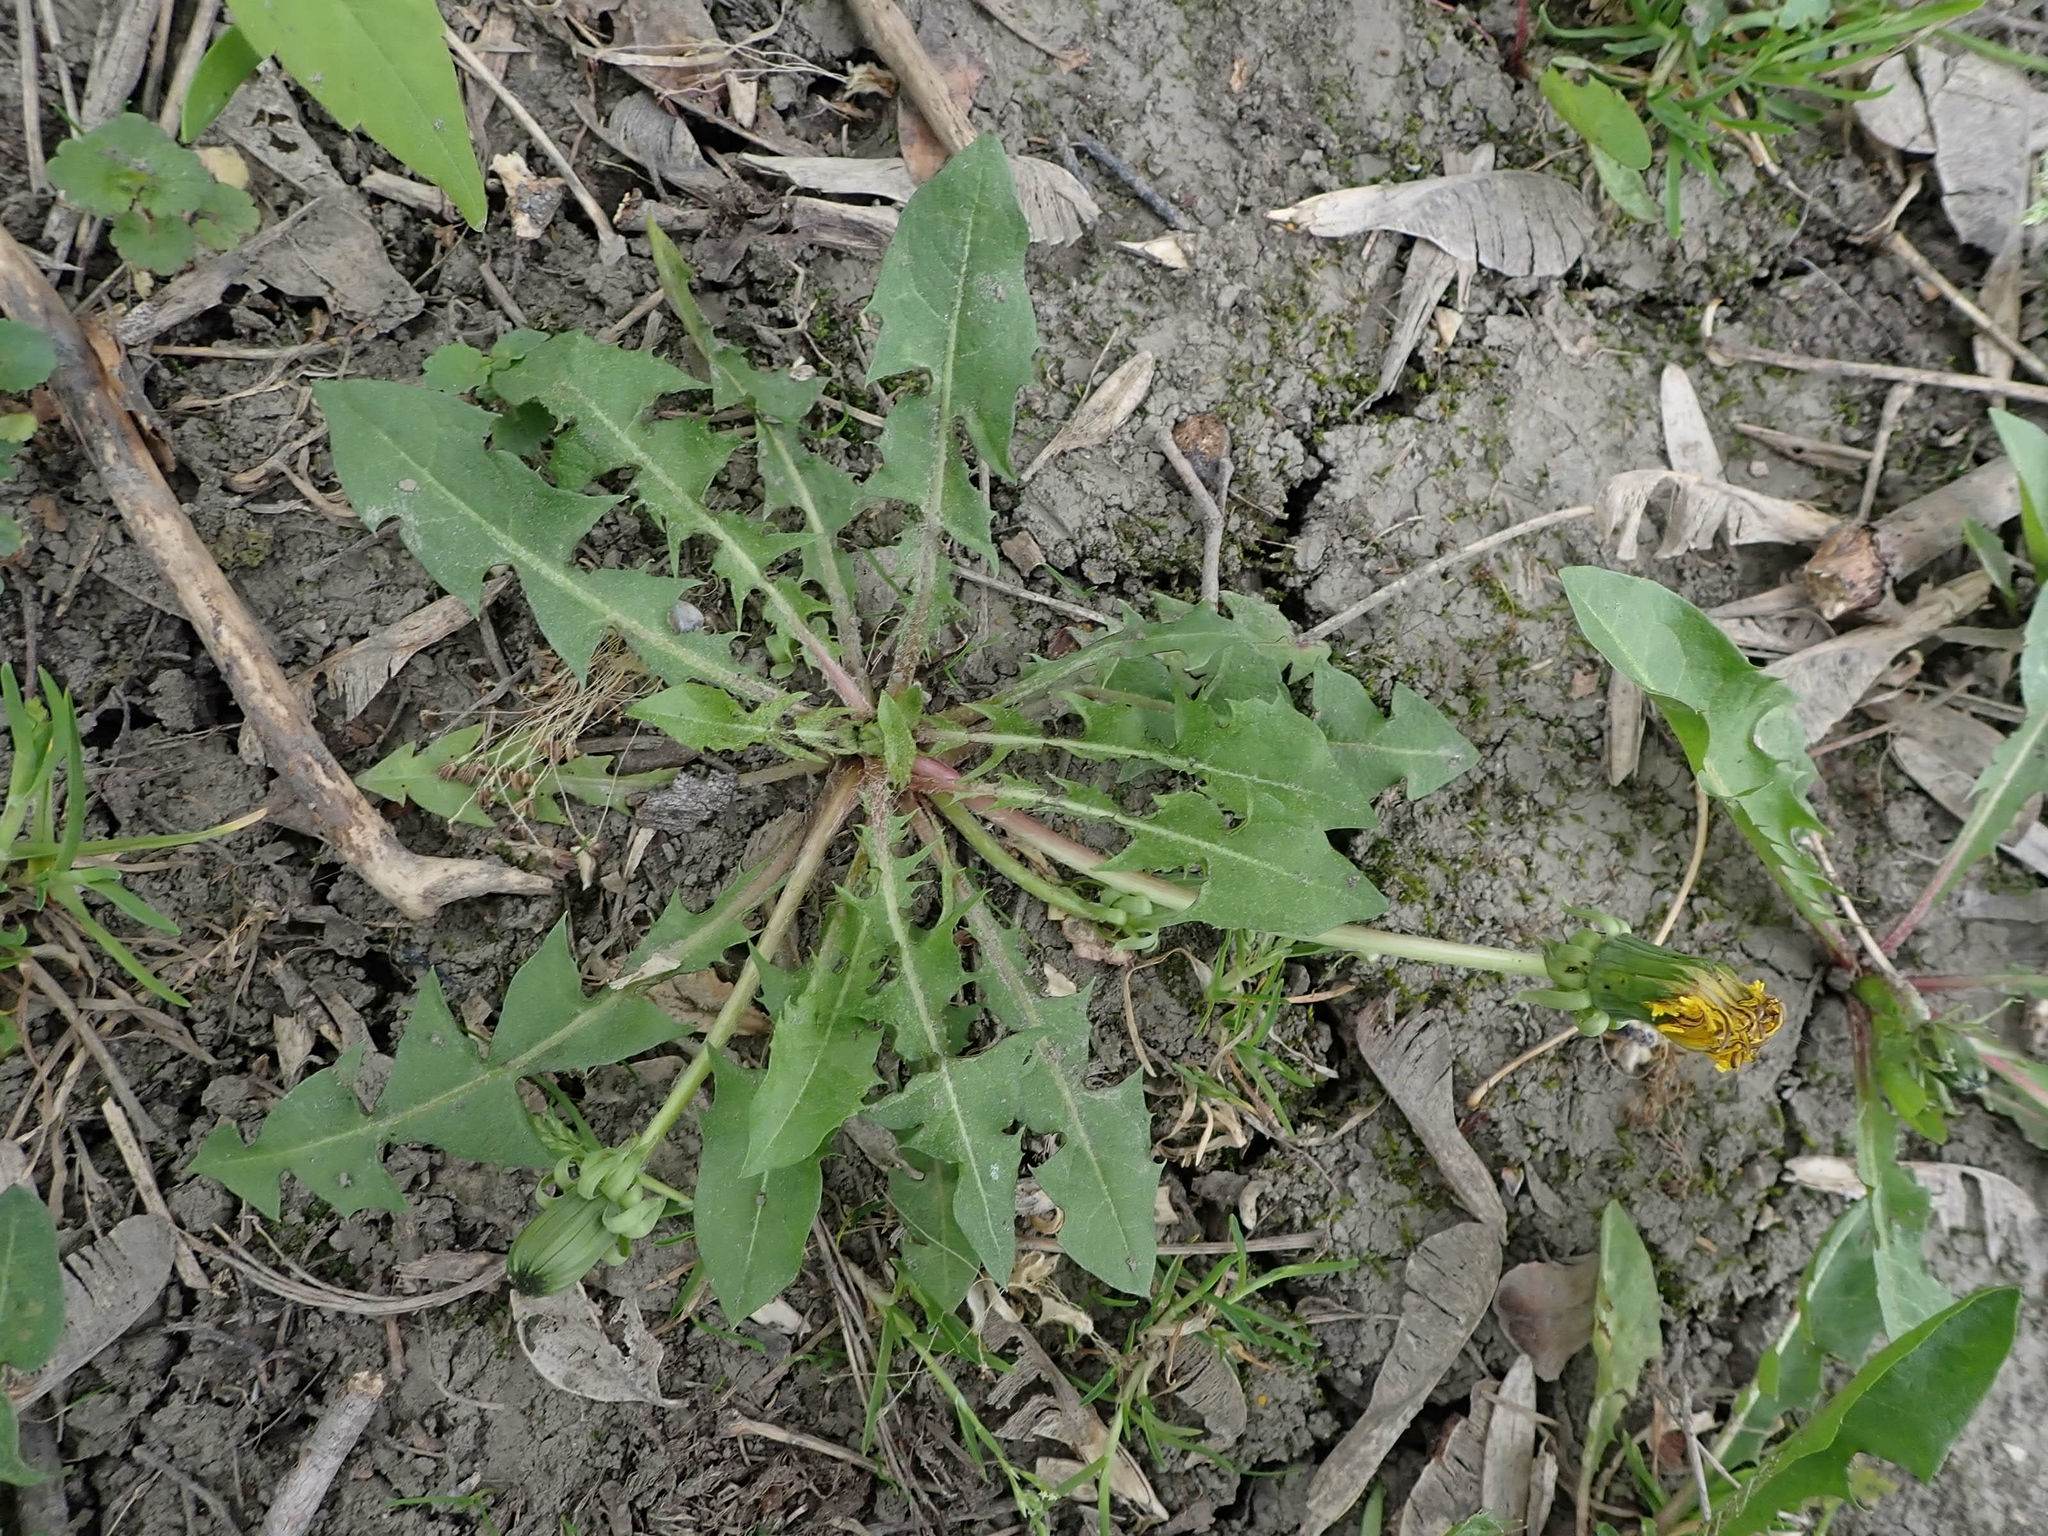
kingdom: Plantae
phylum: Tracheophyta
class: Magnoliopsida
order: Asterales
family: Asteraceae
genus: Taraxacum
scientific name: Taraxacum officinale
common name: Common dandelion
